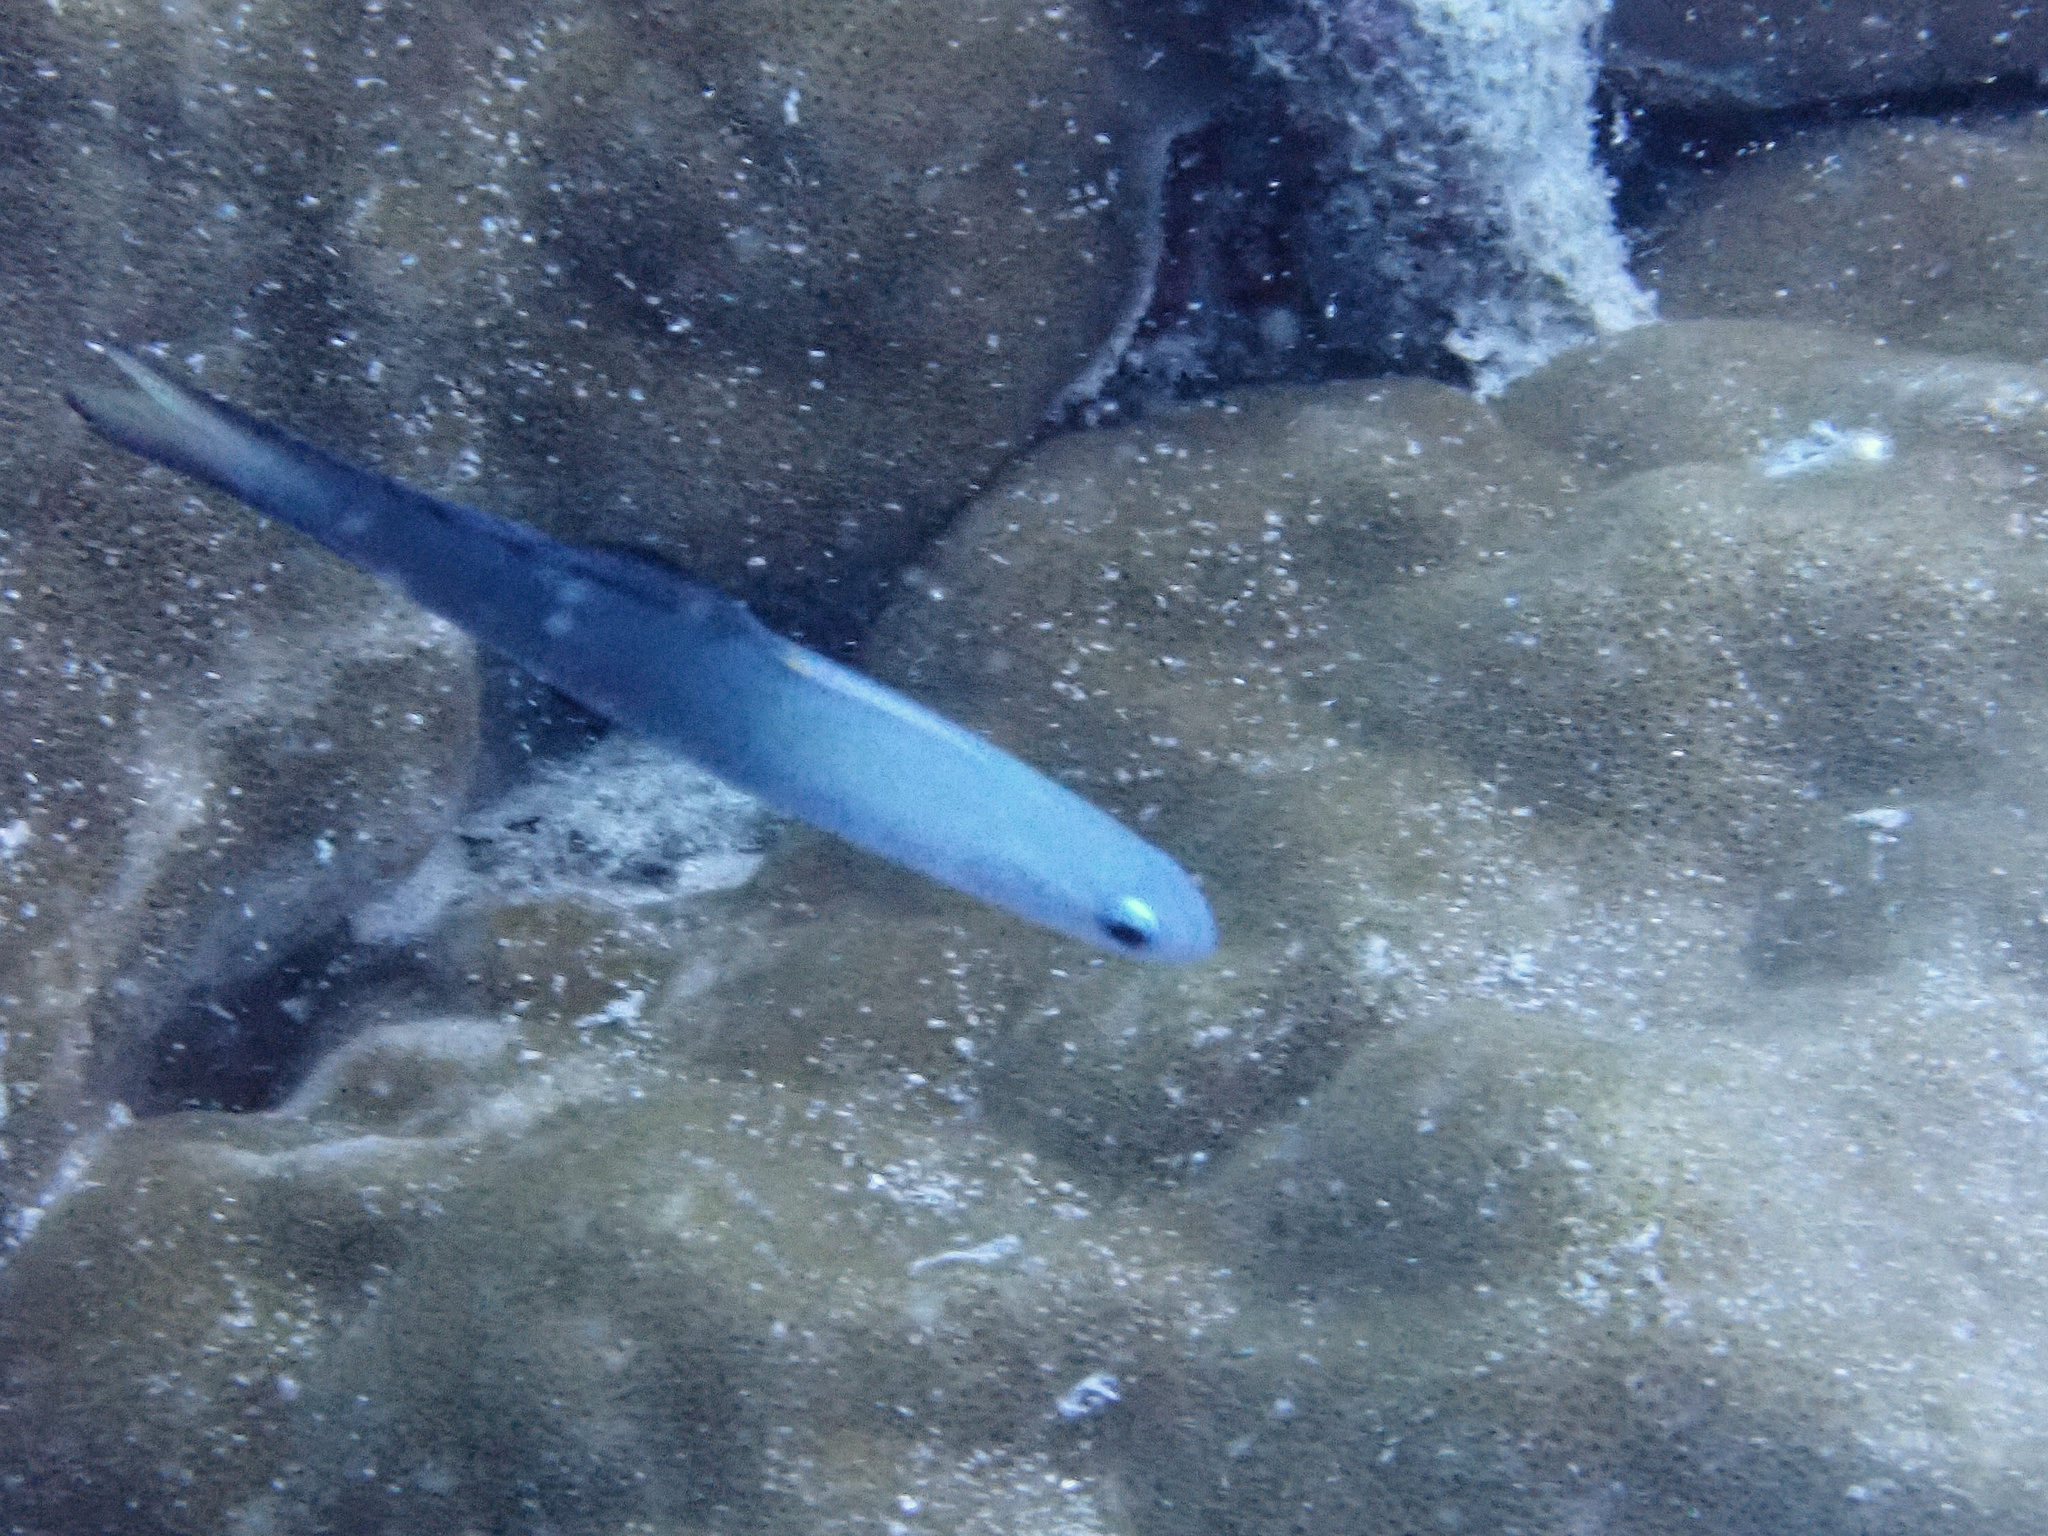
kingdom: Animalia
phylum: Chordata
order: Perciformes
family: Microdesmidae
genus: Ptereleotris
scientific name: Ptereleotris evides
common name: Blackfin dartfish
